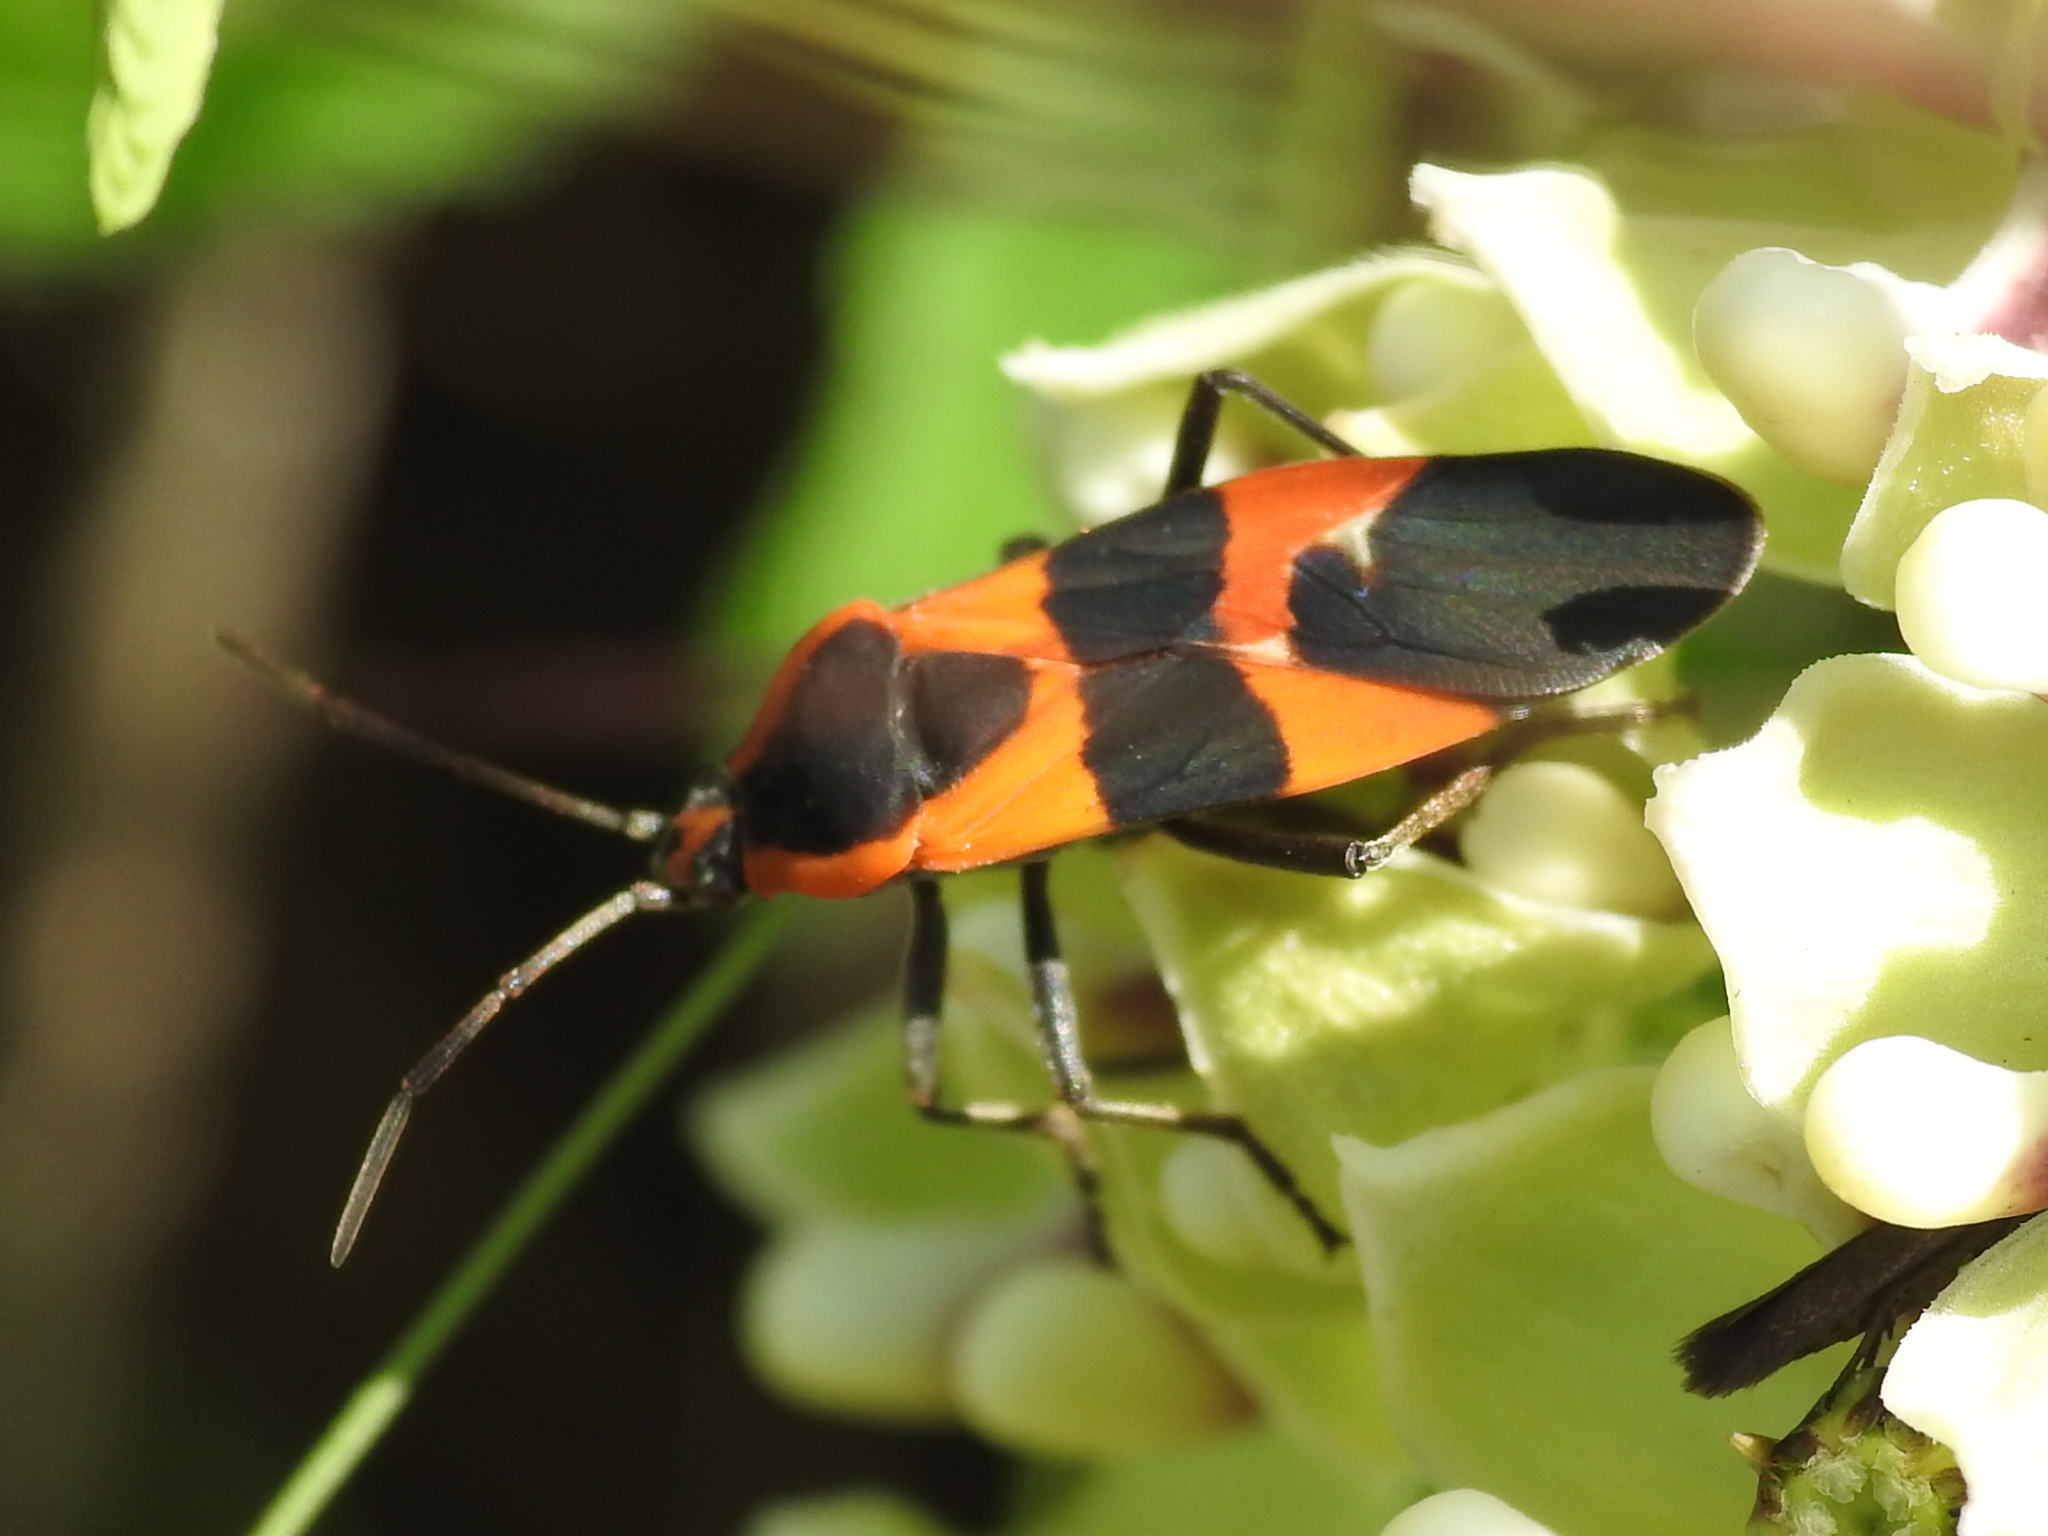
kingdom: Animalia
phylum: Arthropoda
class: Insecta
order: Hemiptera
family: Lygaeidae
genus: Oncopeltus
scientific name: Oncopeltus fasciatus
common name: Large milkweed bug
